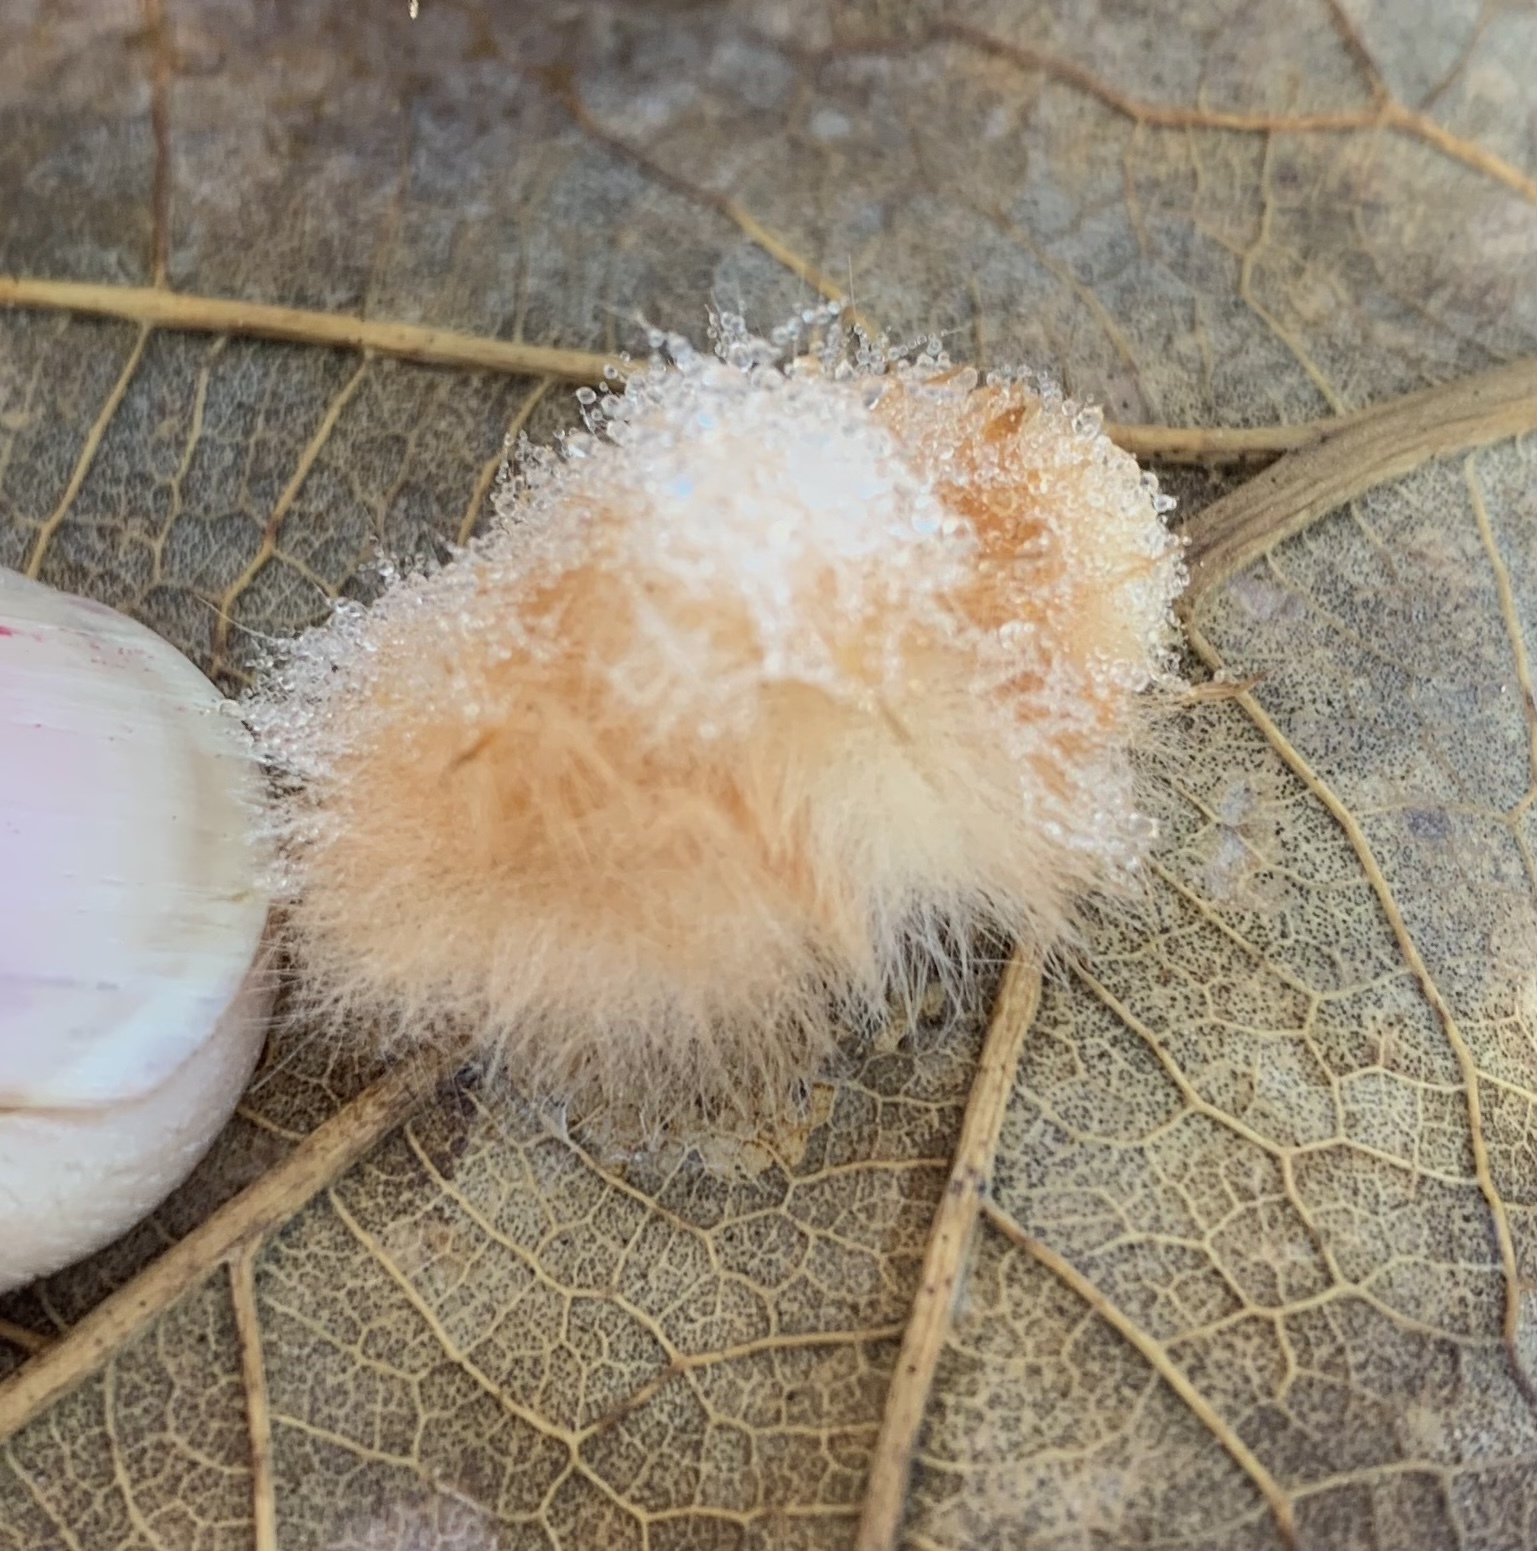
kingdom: Animalia
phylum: Arthropoda
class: Insecta
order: Hymenoptera
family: Cynipidae
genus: Andricus
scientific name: Andricus Druon pattoni
